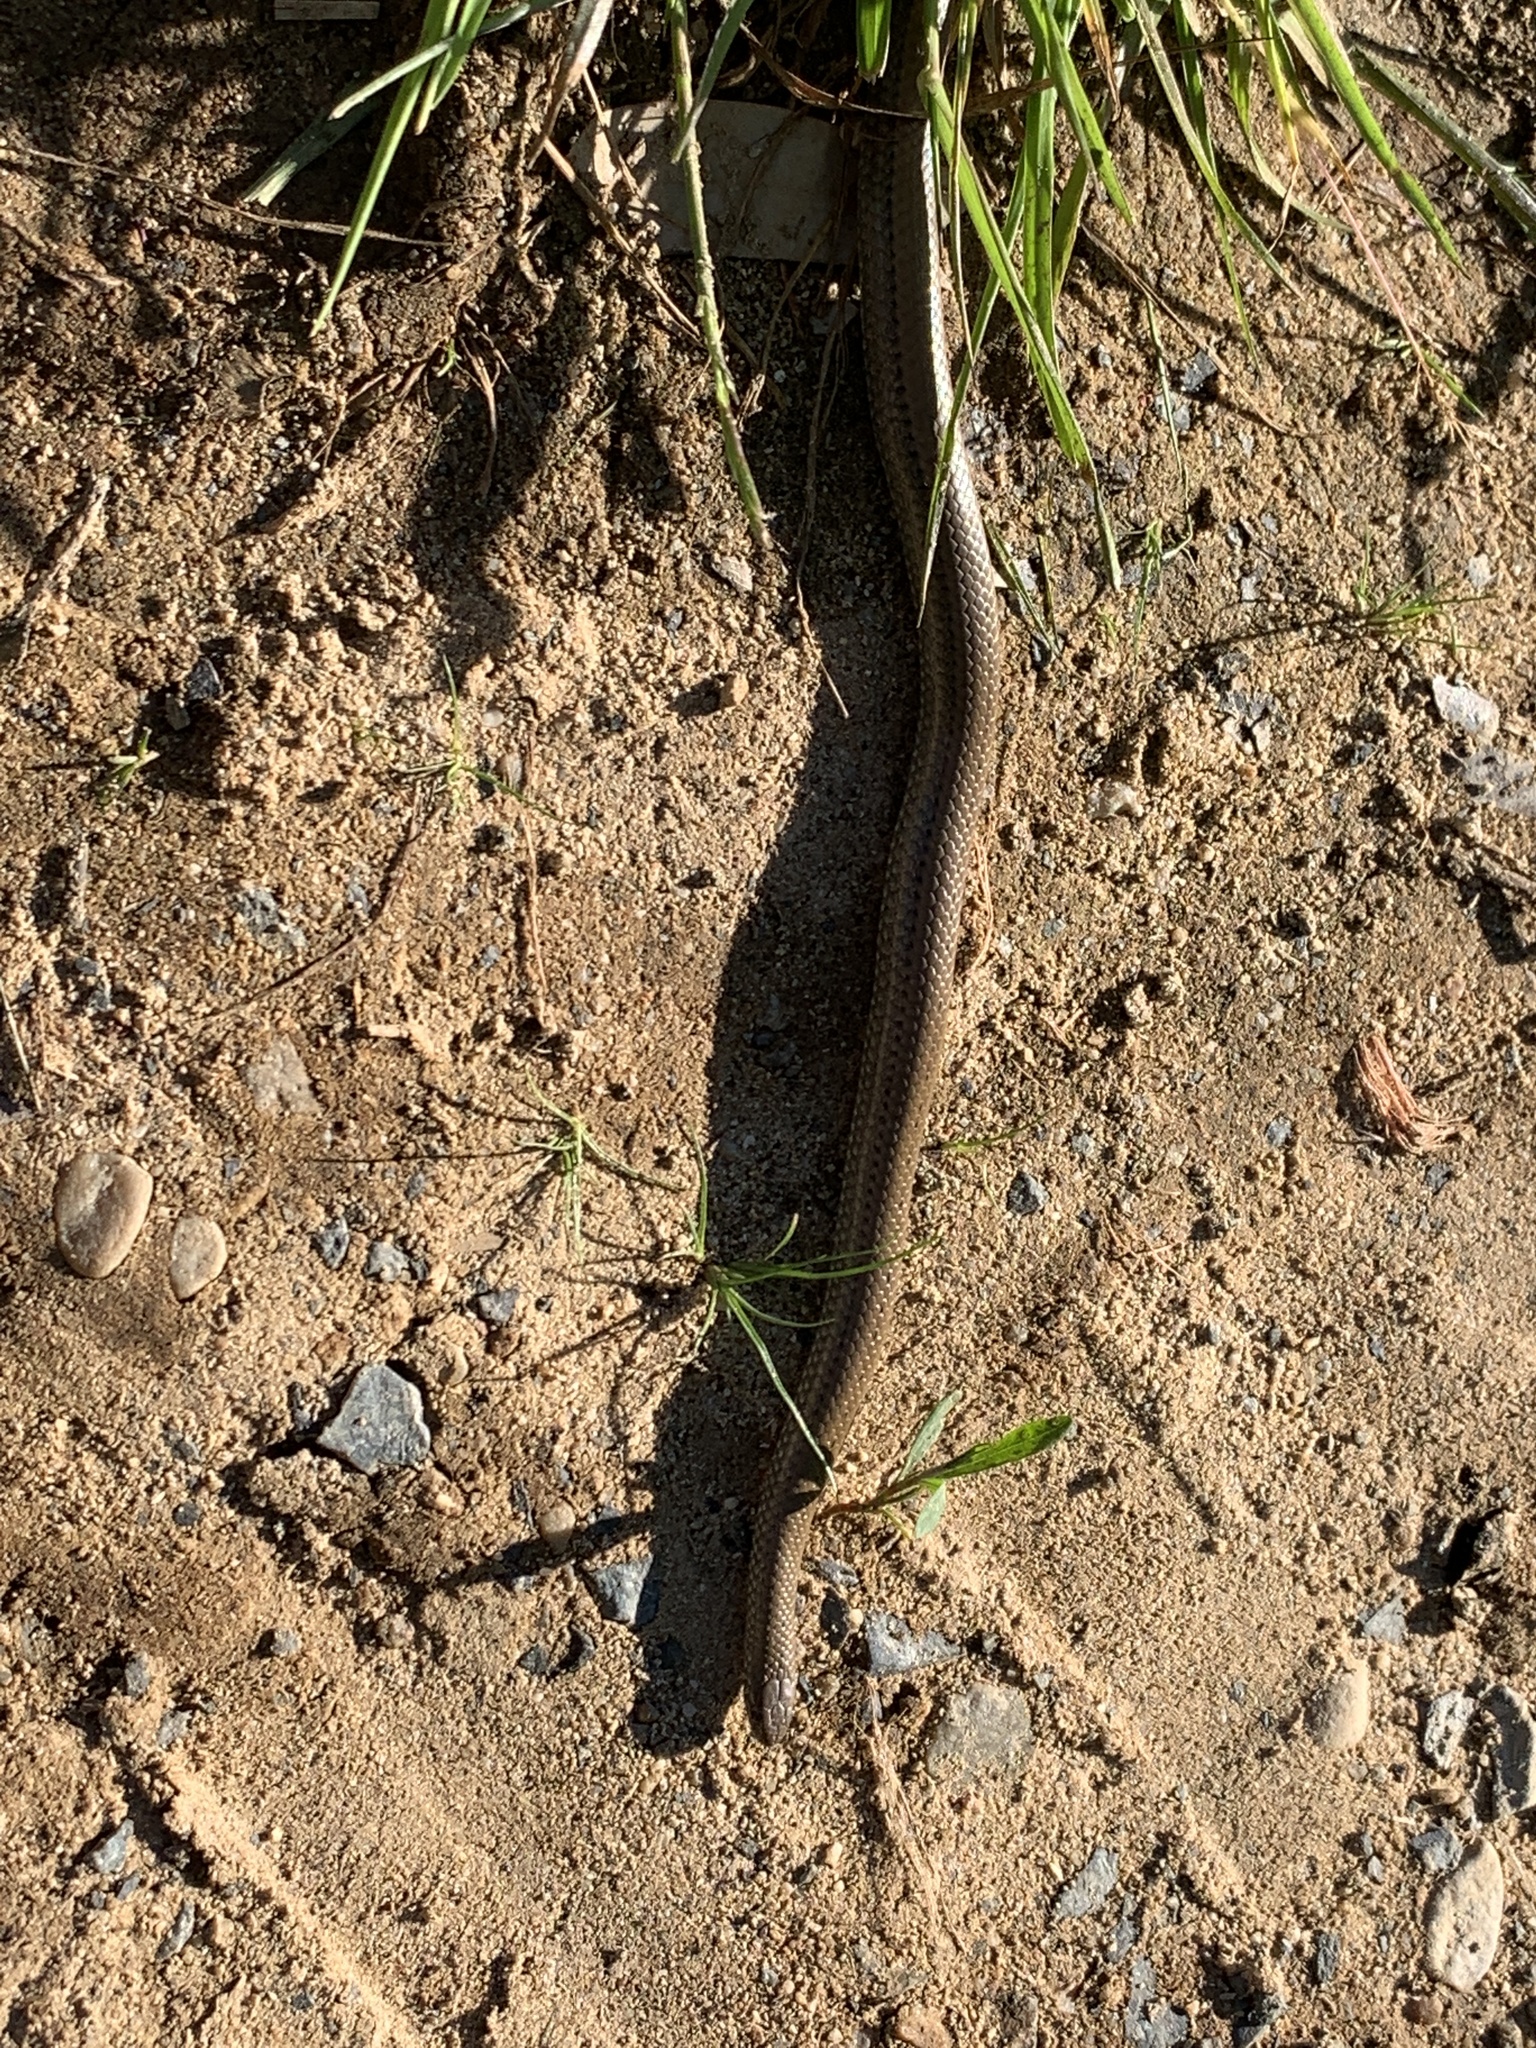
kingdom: Animalia
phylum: Chordata
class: Squamata
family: Pseudaspididae
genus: Pseudaspis
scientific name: Pseudaspis cana
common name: Mole snake
